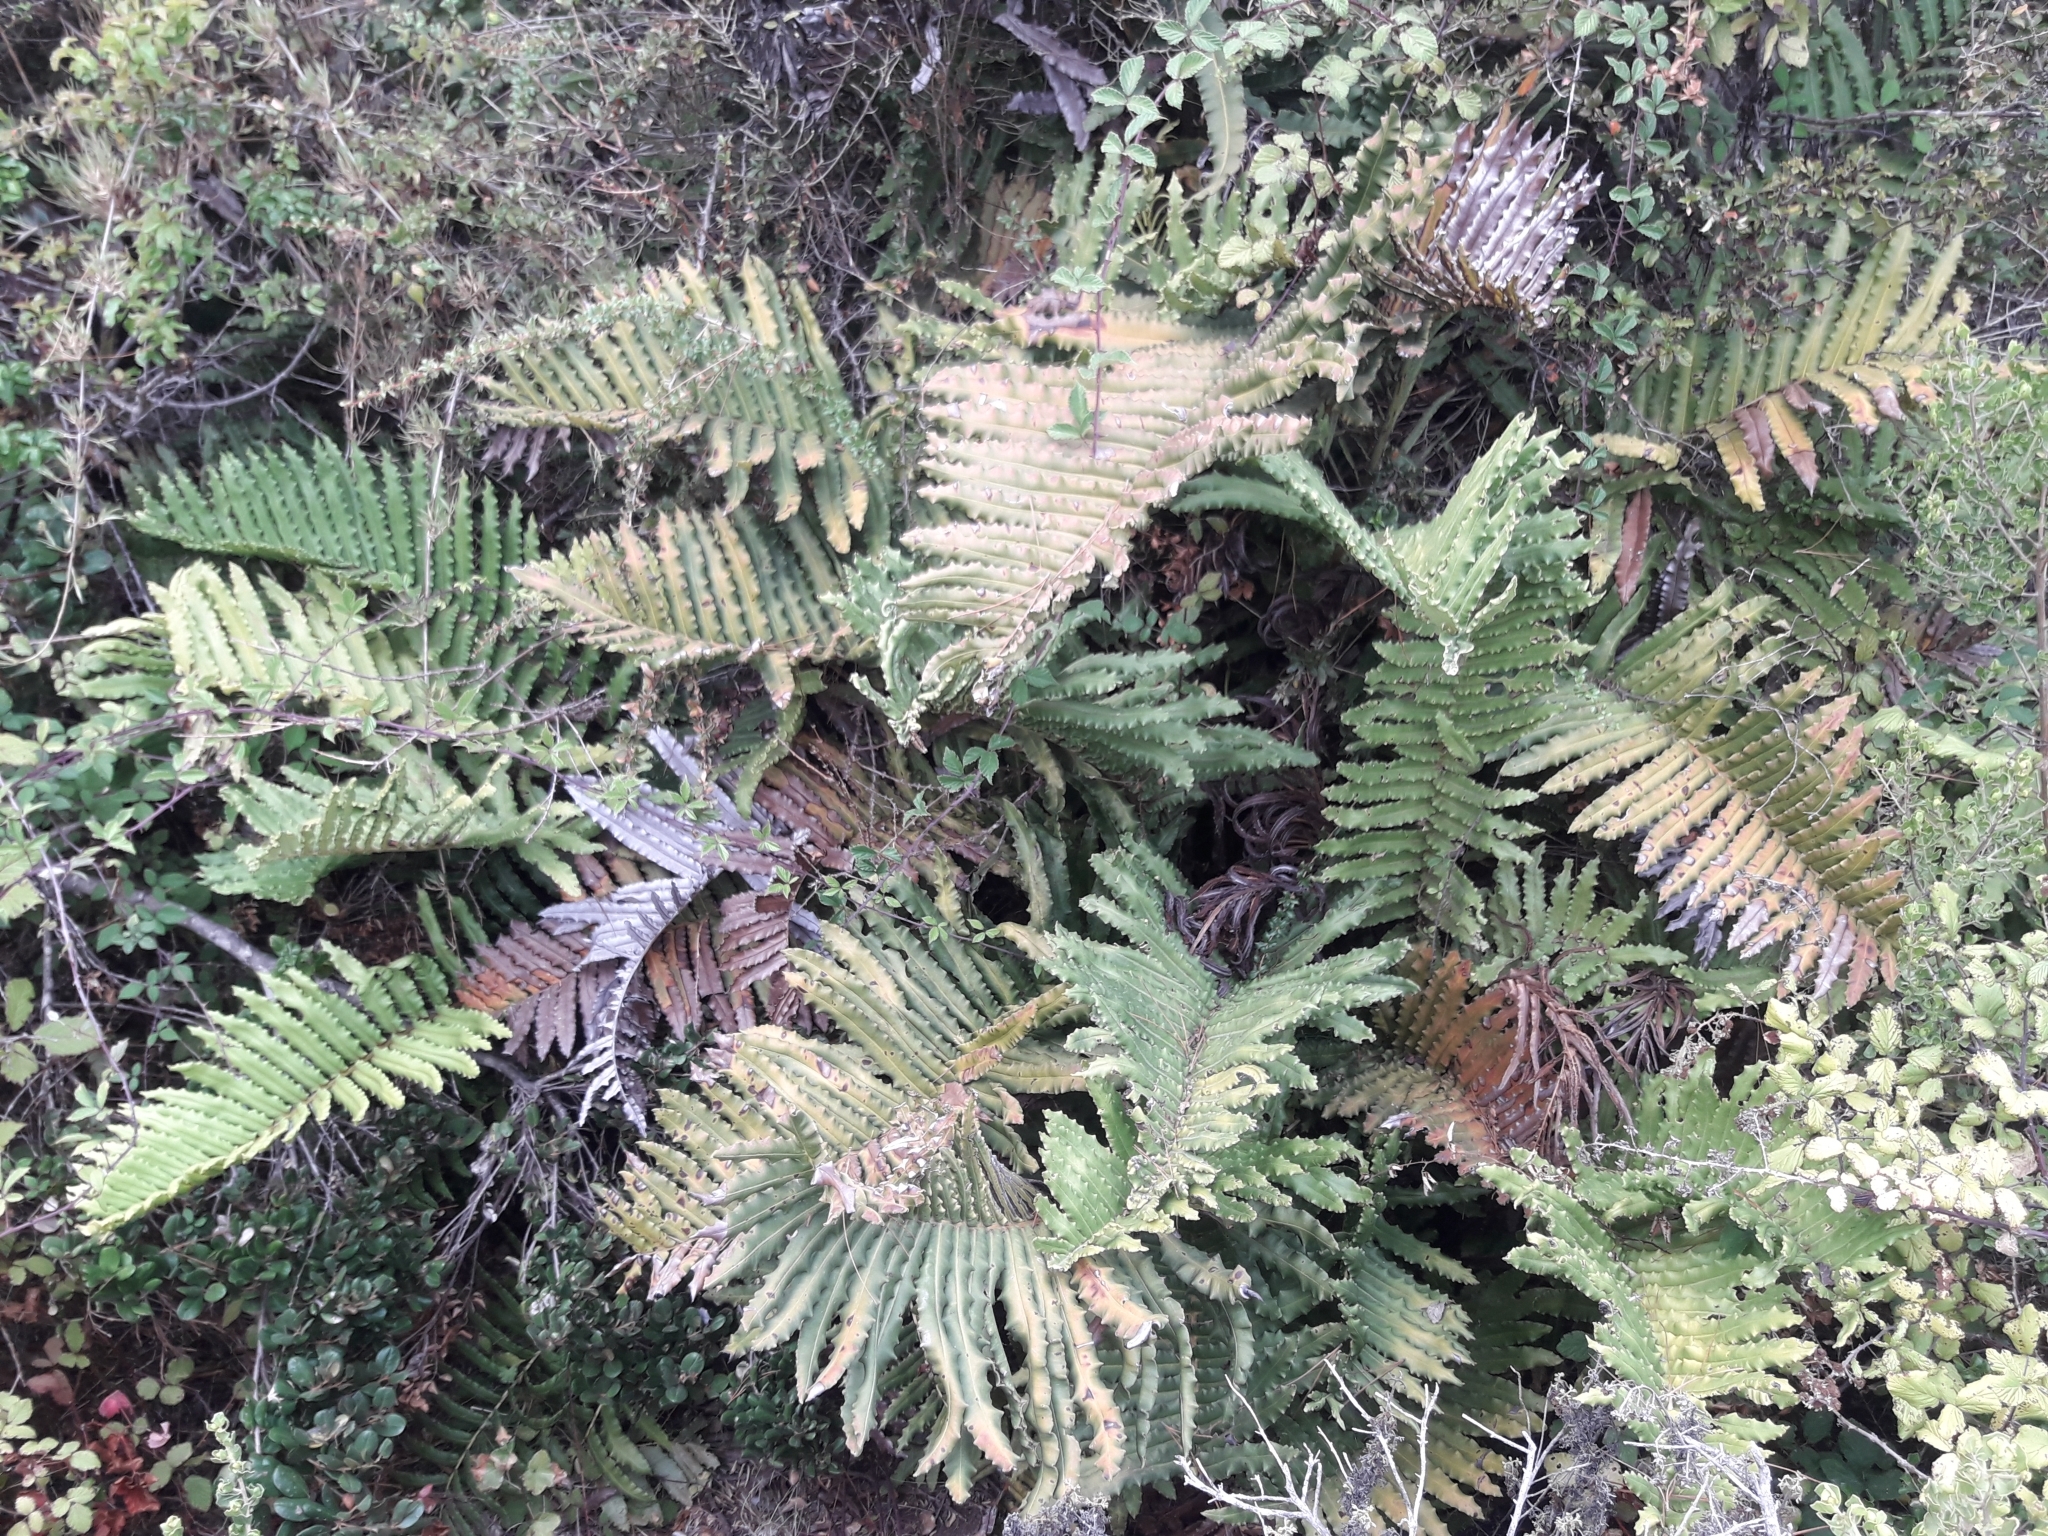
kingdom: Plantae
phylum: Tracheophyta
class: Polypodiopsida
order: Polypodiales
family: Blechnaceae
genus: Parablechnum
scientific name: Parablechnum chilense
